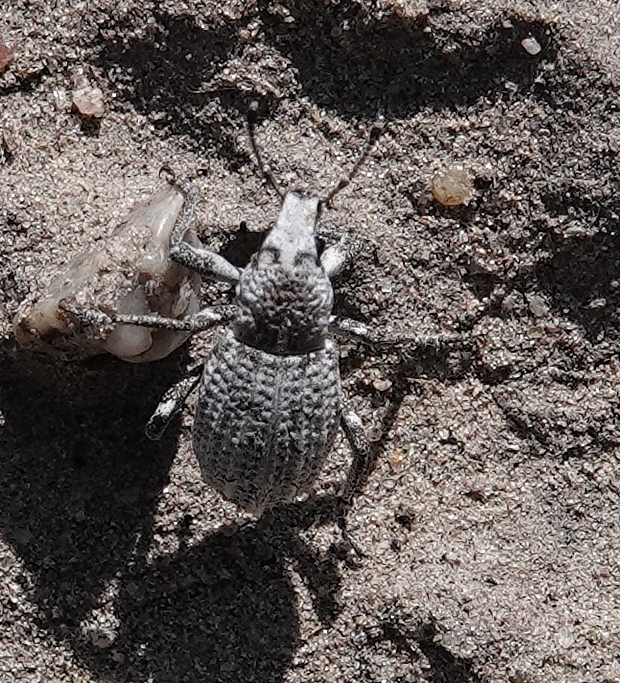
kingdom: Animalia
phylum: Arthropoda
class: Insecta
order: Coleoptera
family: Curculionidae
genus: Graphorhinus
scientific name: Graphorhinus vadosus
